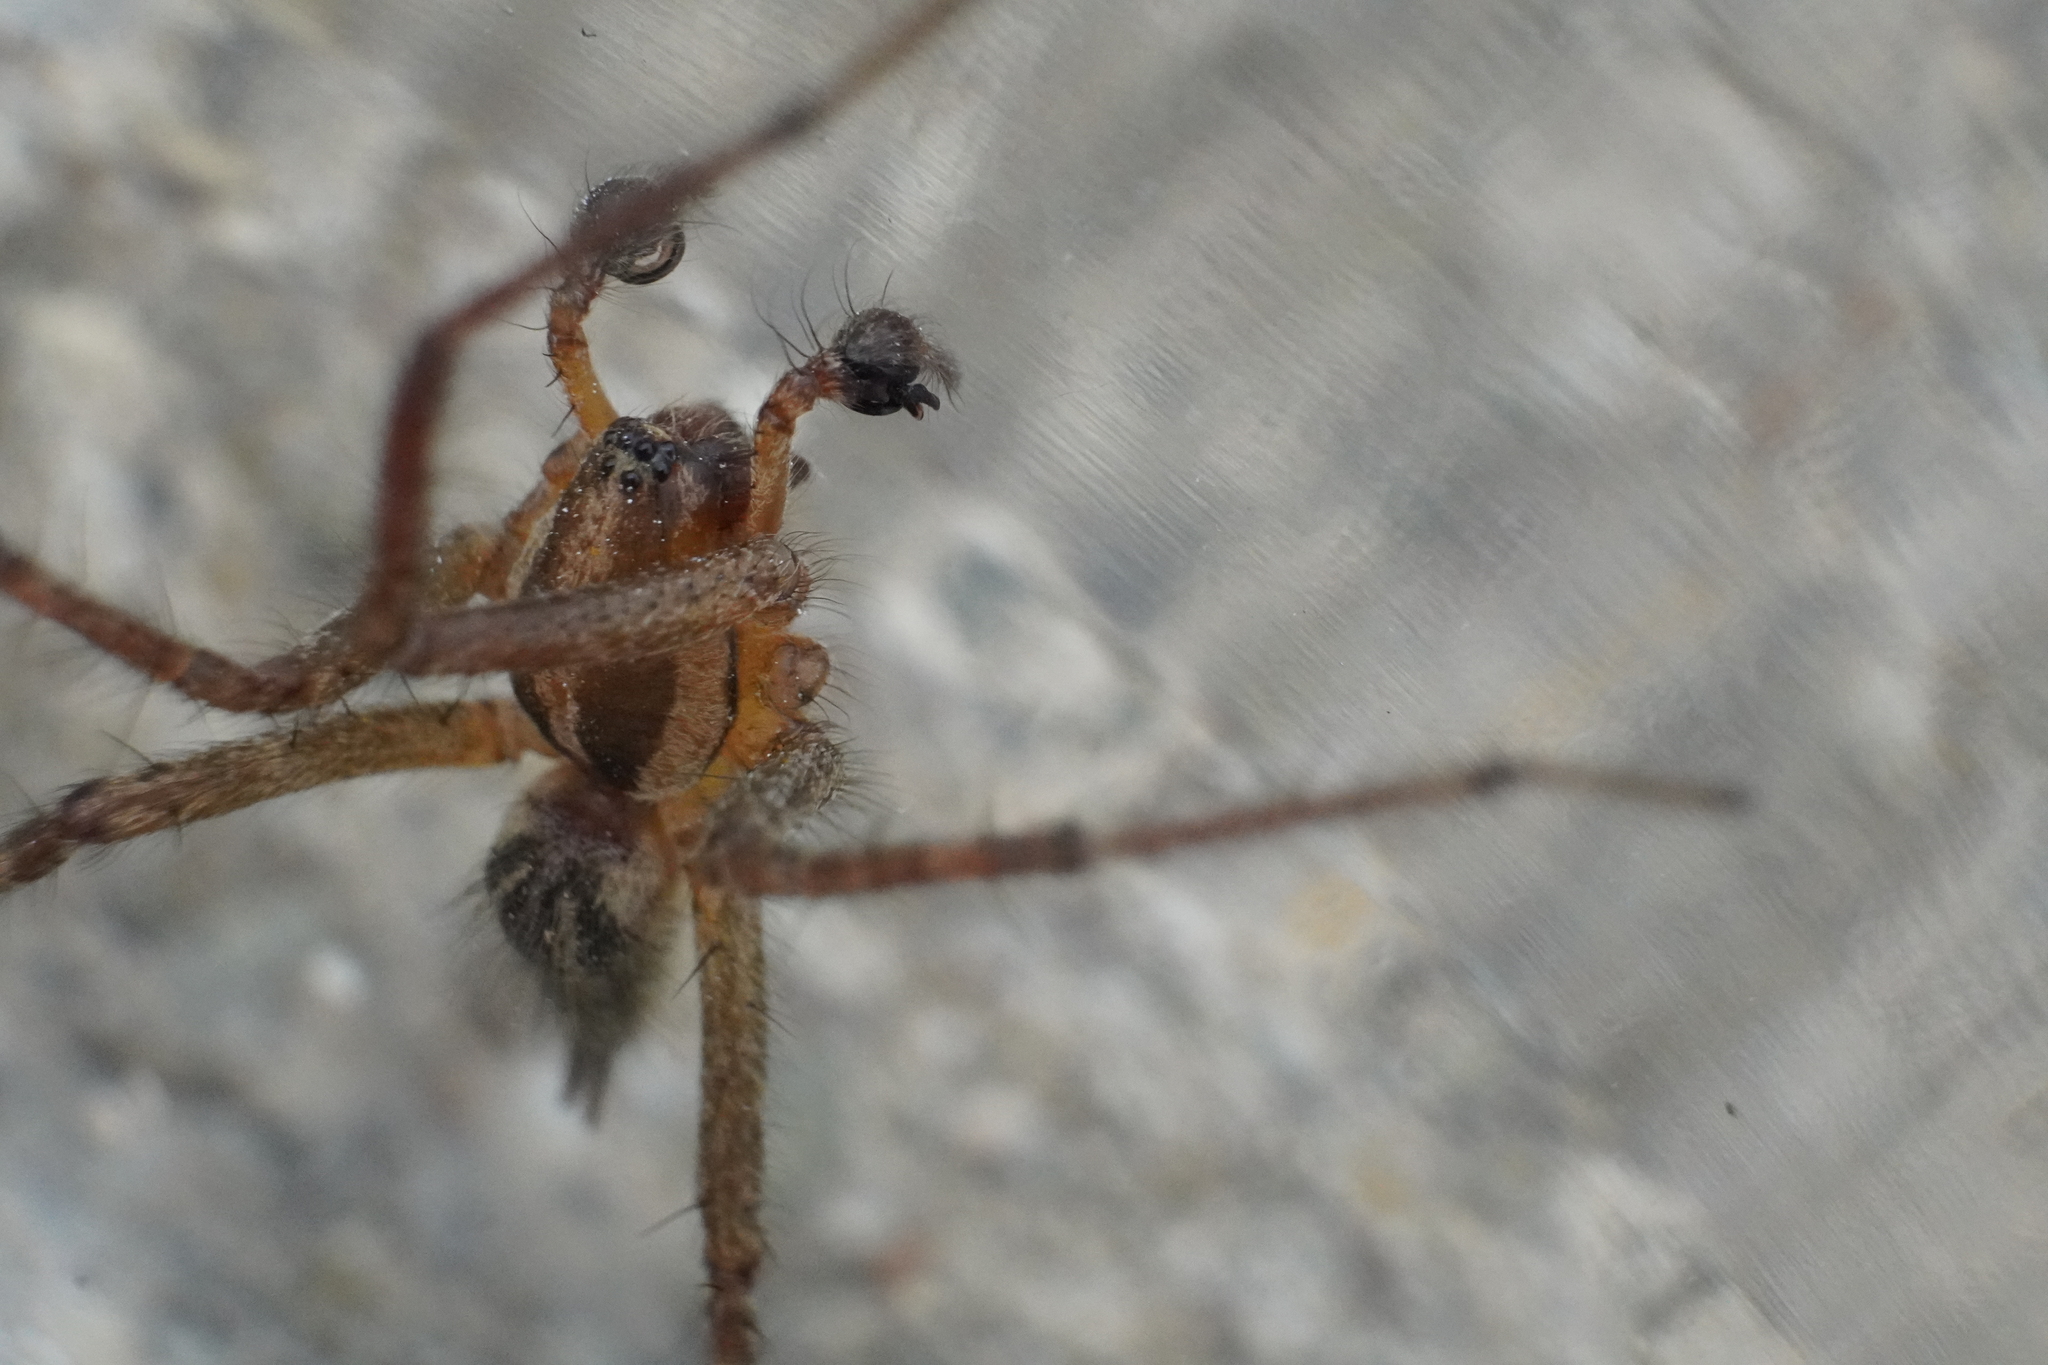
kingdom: Animalia
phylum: Arthropoda
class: Arachnida
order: Araneae
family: Agelenidae
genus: Agelenopsis
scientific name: Agelenopsis
